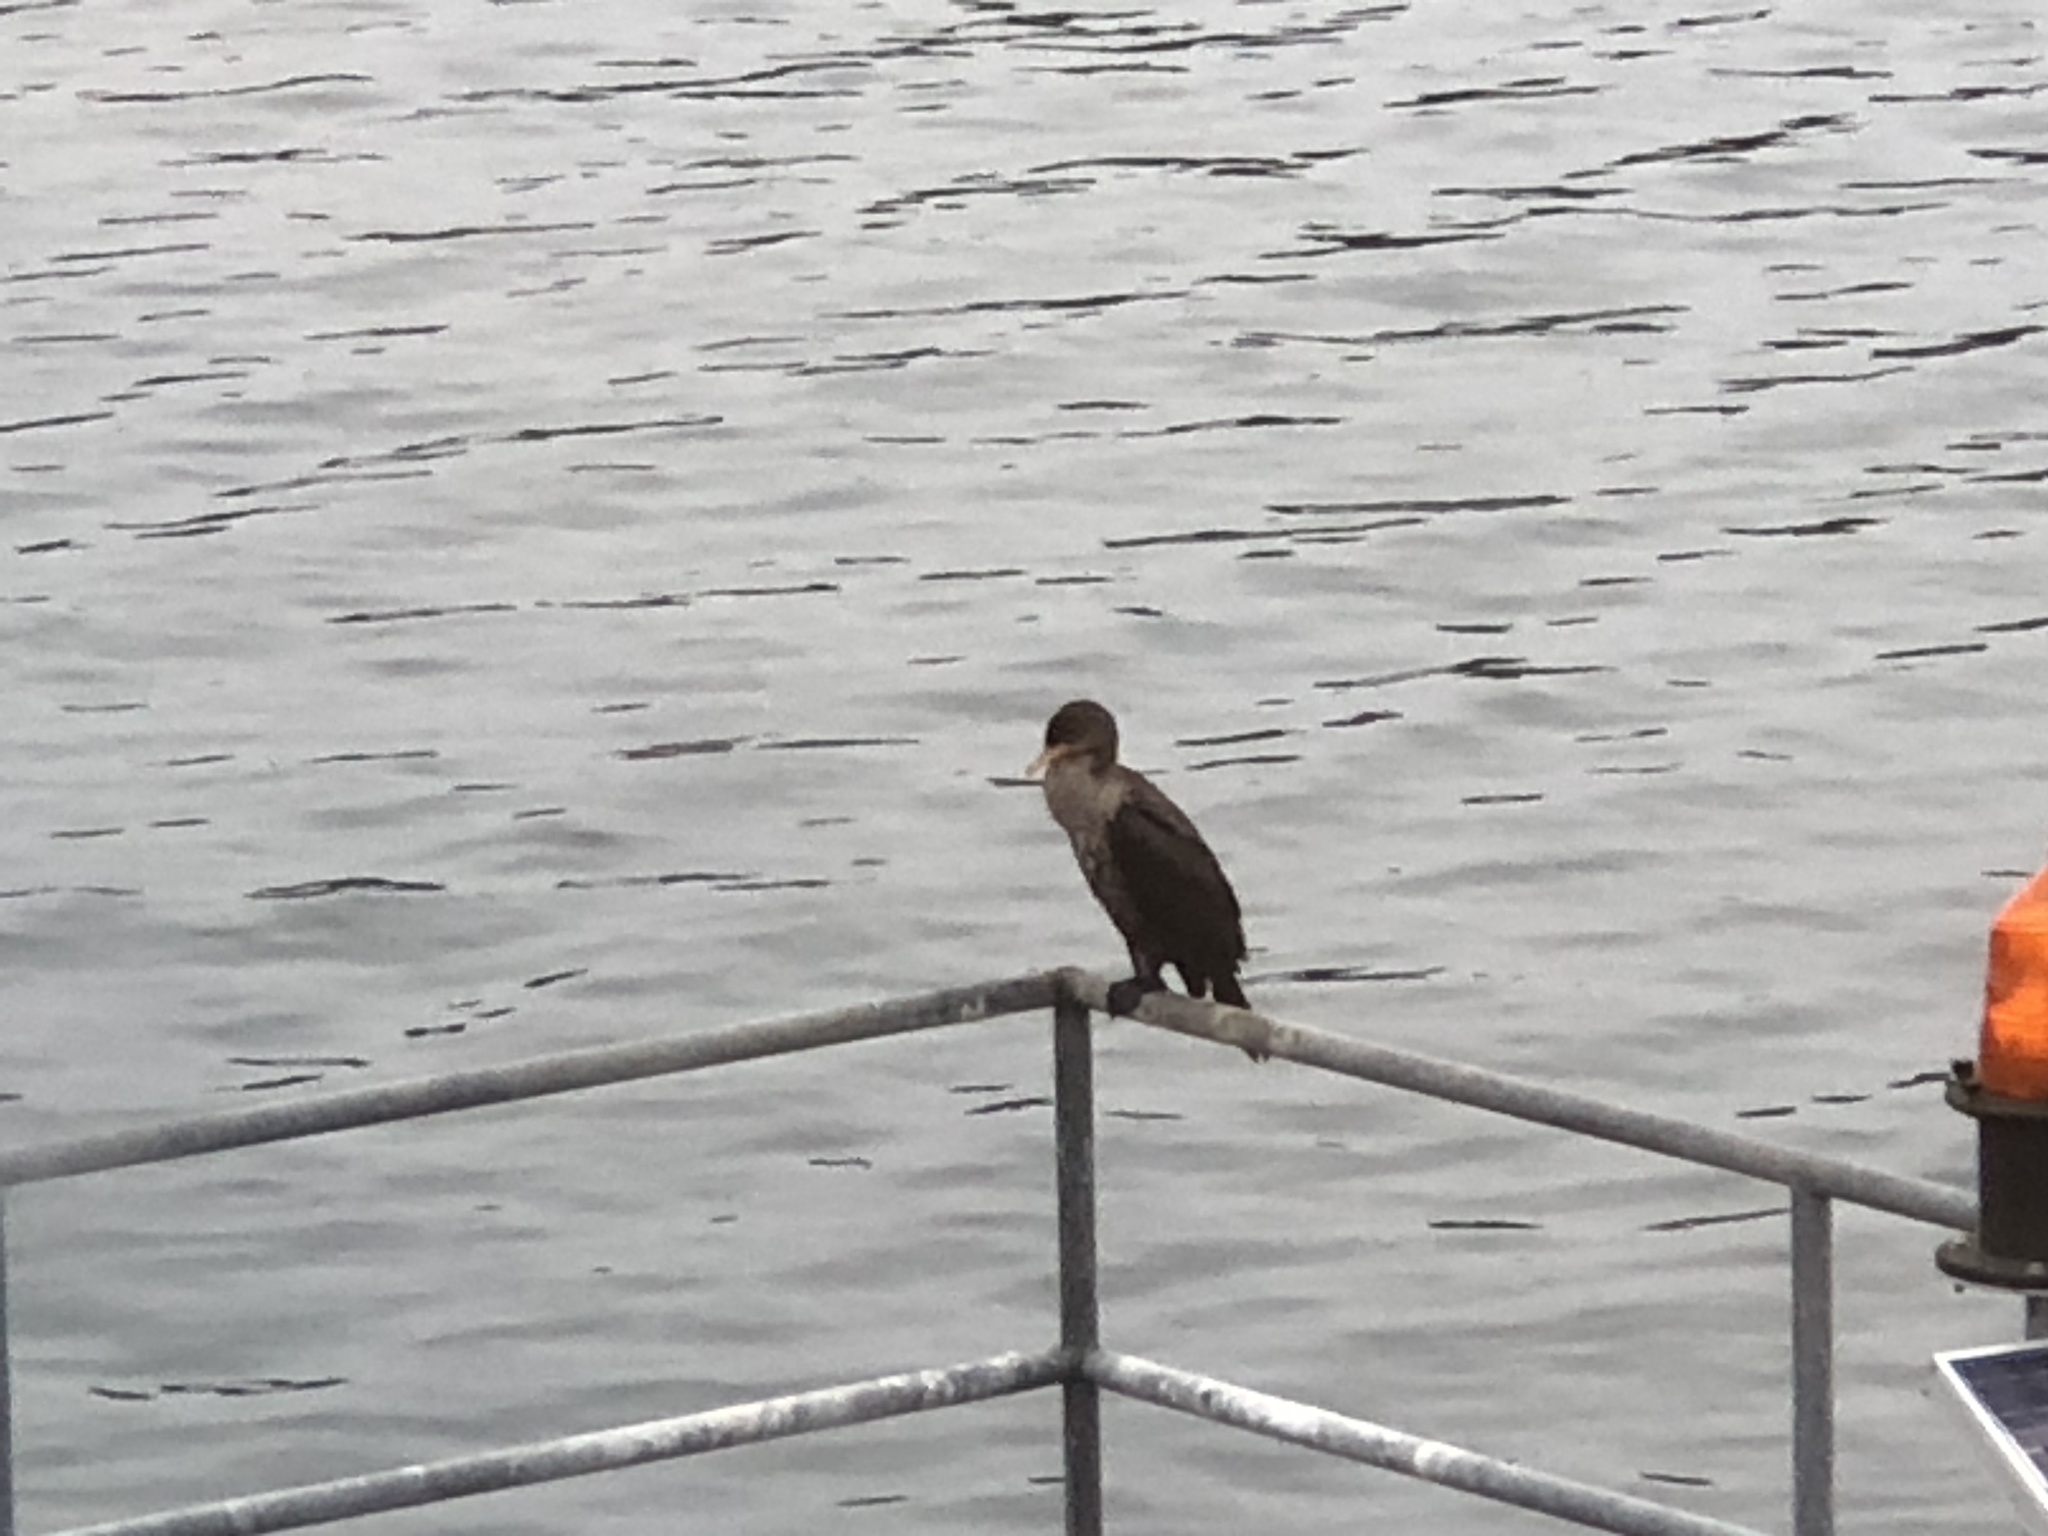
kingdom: Animalia
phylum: Chordata
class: Aves
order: Suliformes
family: Phalacrocoracidae
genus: Phalacrocorax
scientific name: Phalacrocorax auritus
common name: Double-crested cormorant
